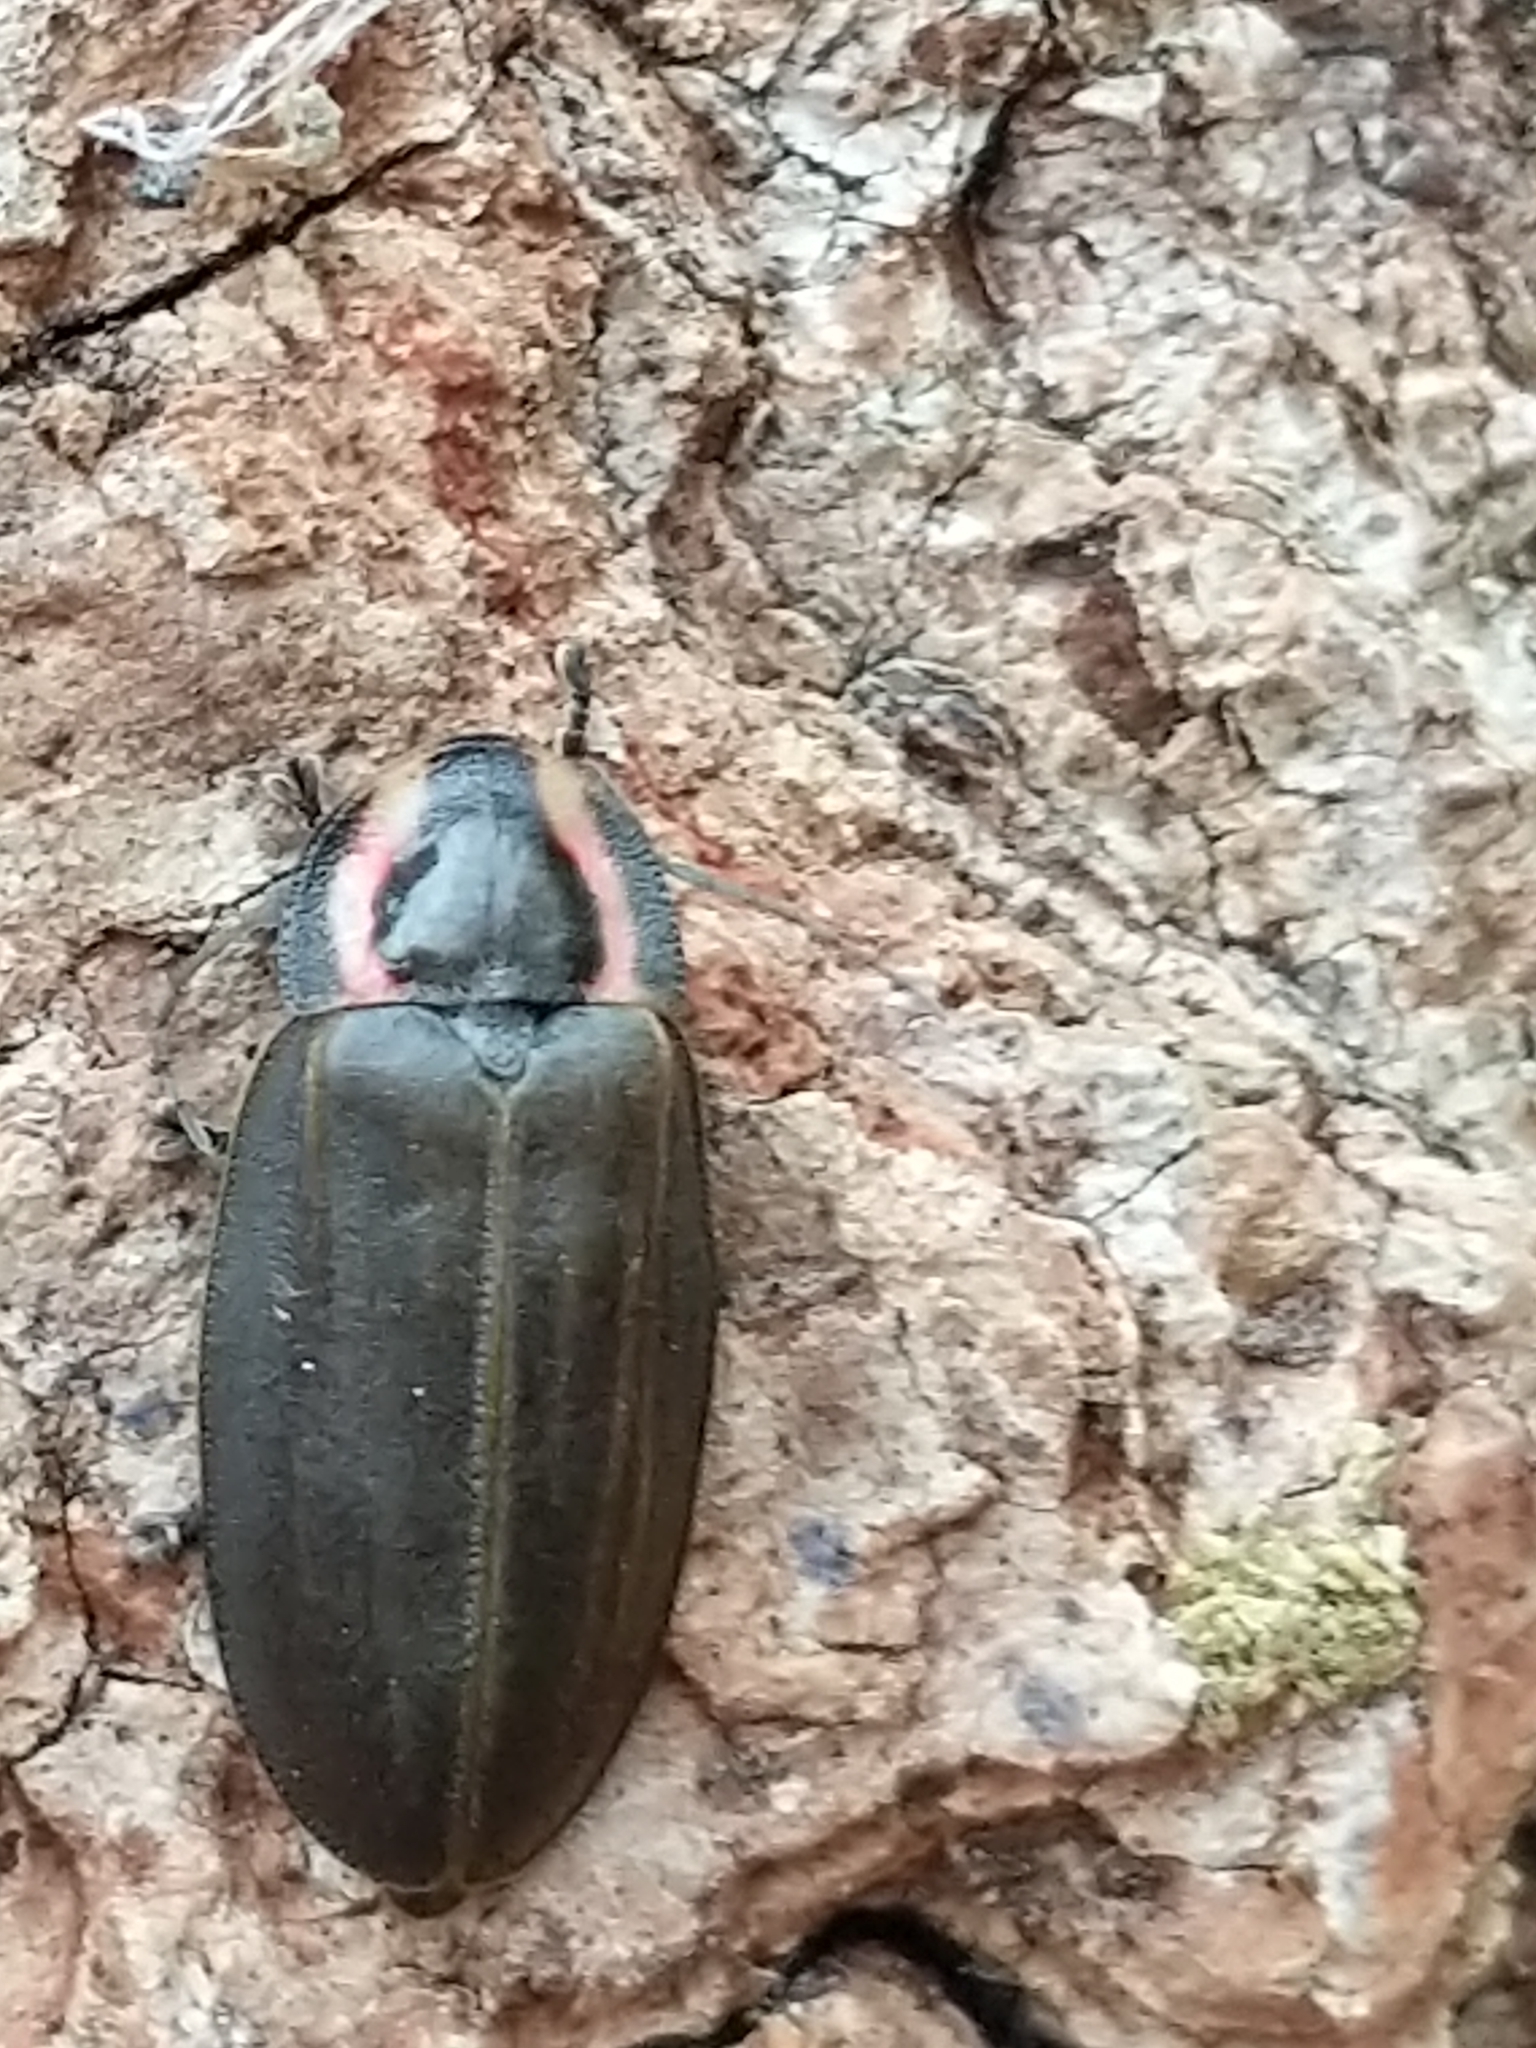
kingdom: Animalia
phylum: Arthropoda
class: Insecta
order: Coleoptera
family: Lampyridae
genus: Photinus
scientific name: Photinus corrusca
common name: Winter firefly
